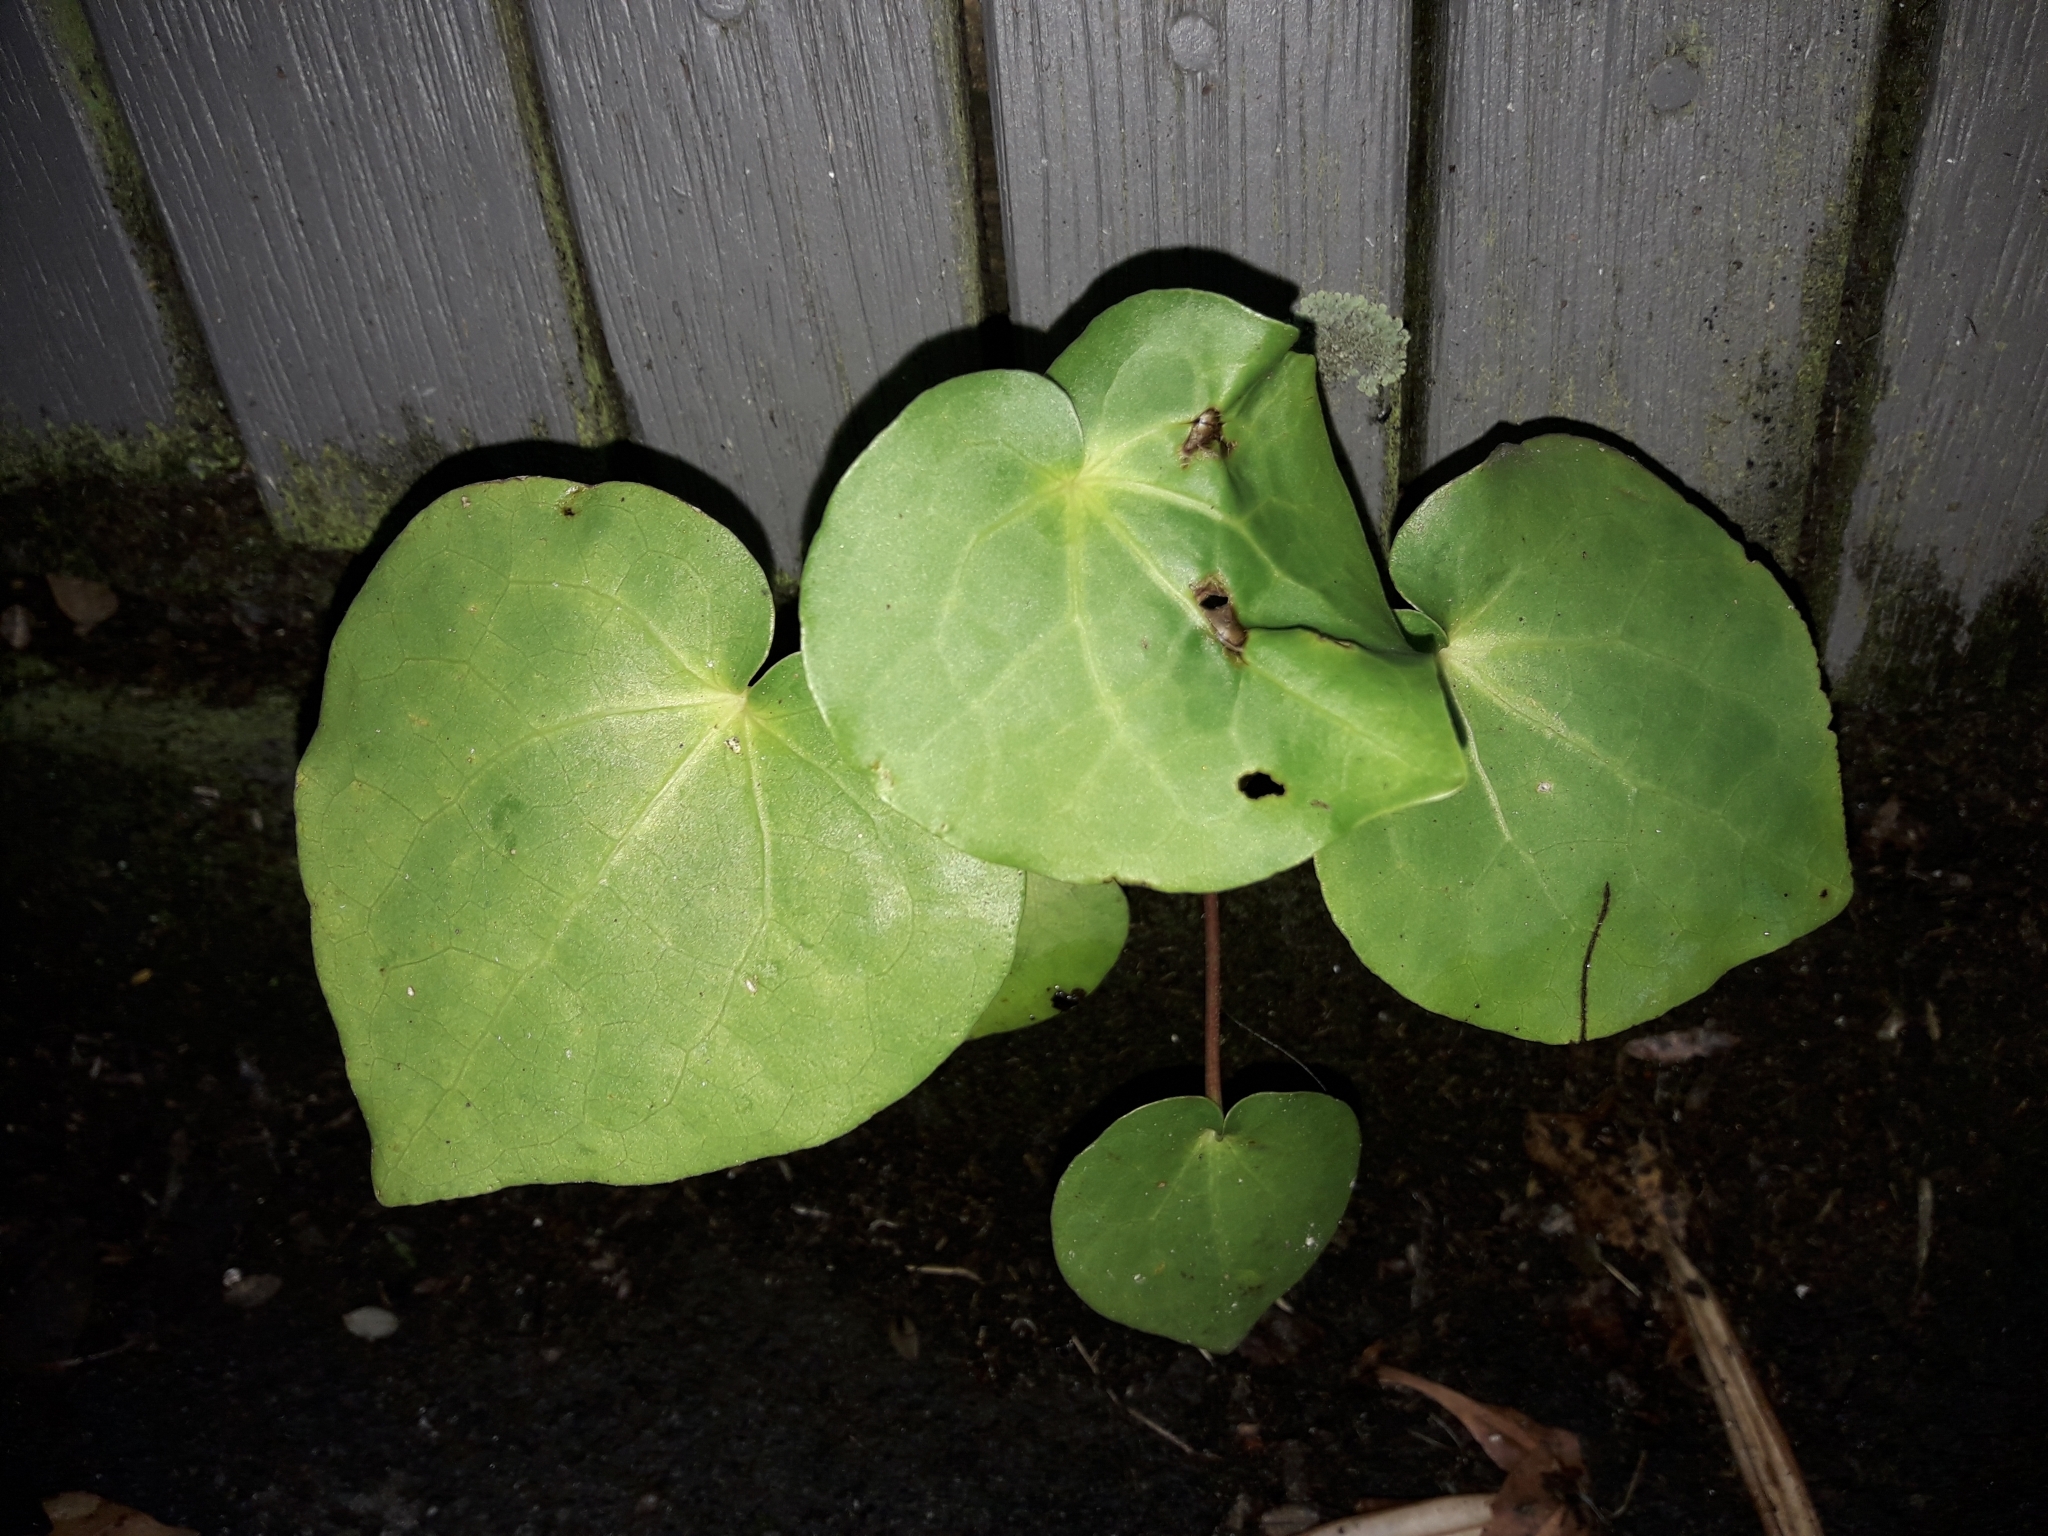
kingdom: Plantae
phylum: Tracheophyta
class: Magnoliopsida
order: Piperales
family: Piperaceae
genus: Macropiper
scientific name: Macropiper excelsum
